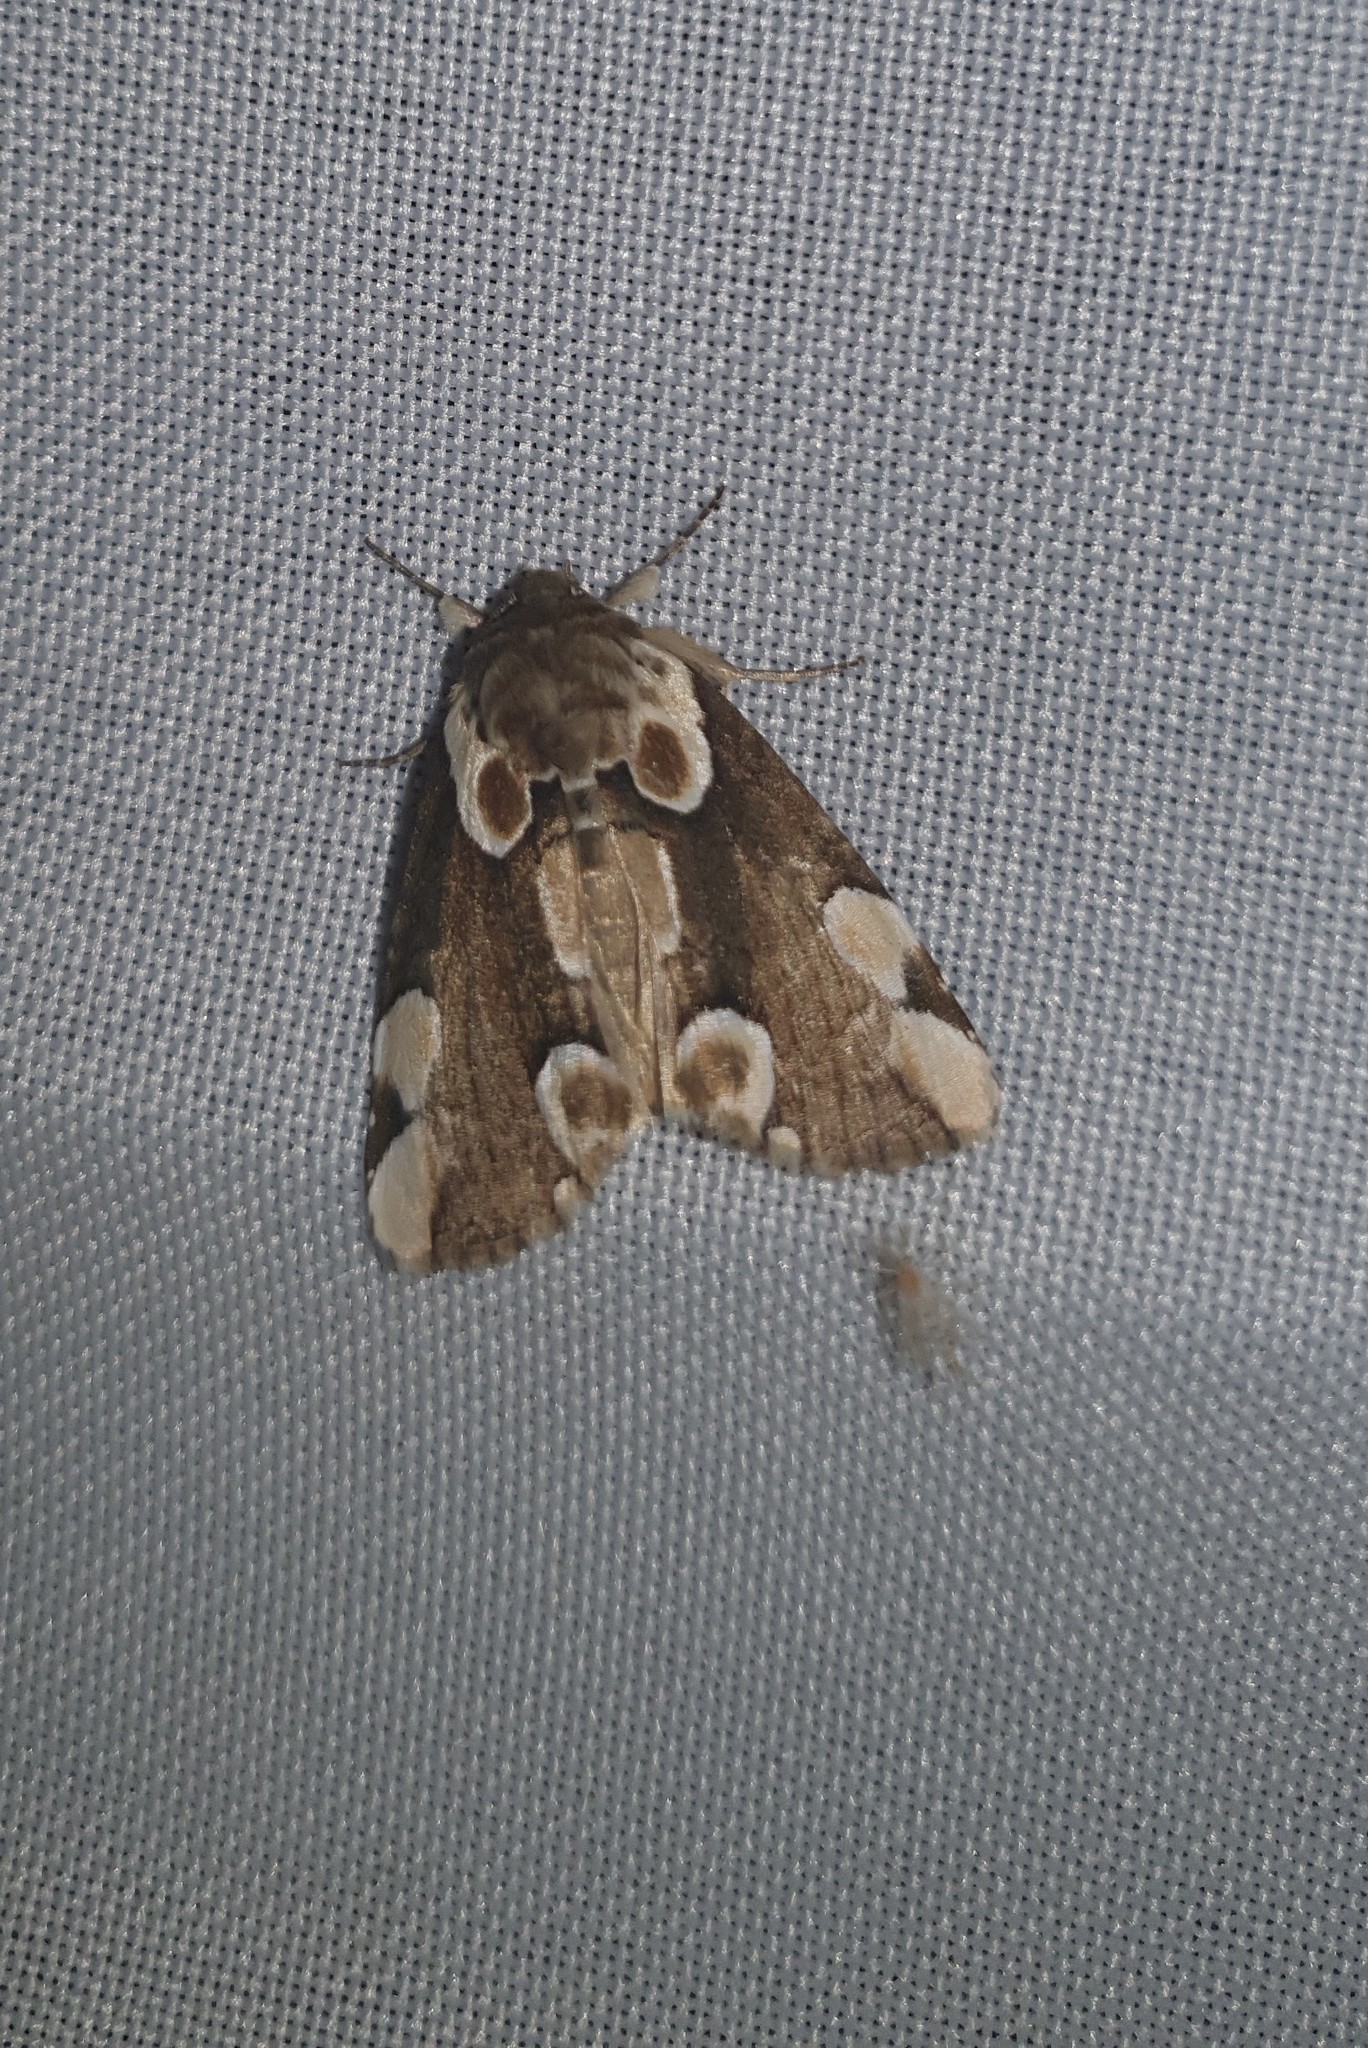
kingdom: Animalia
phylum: Arthropoda
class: Insecta
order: Lepidoptera
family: Drepanidae
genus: Thyatira
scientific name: Thyatira batis
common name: Peach blossom
